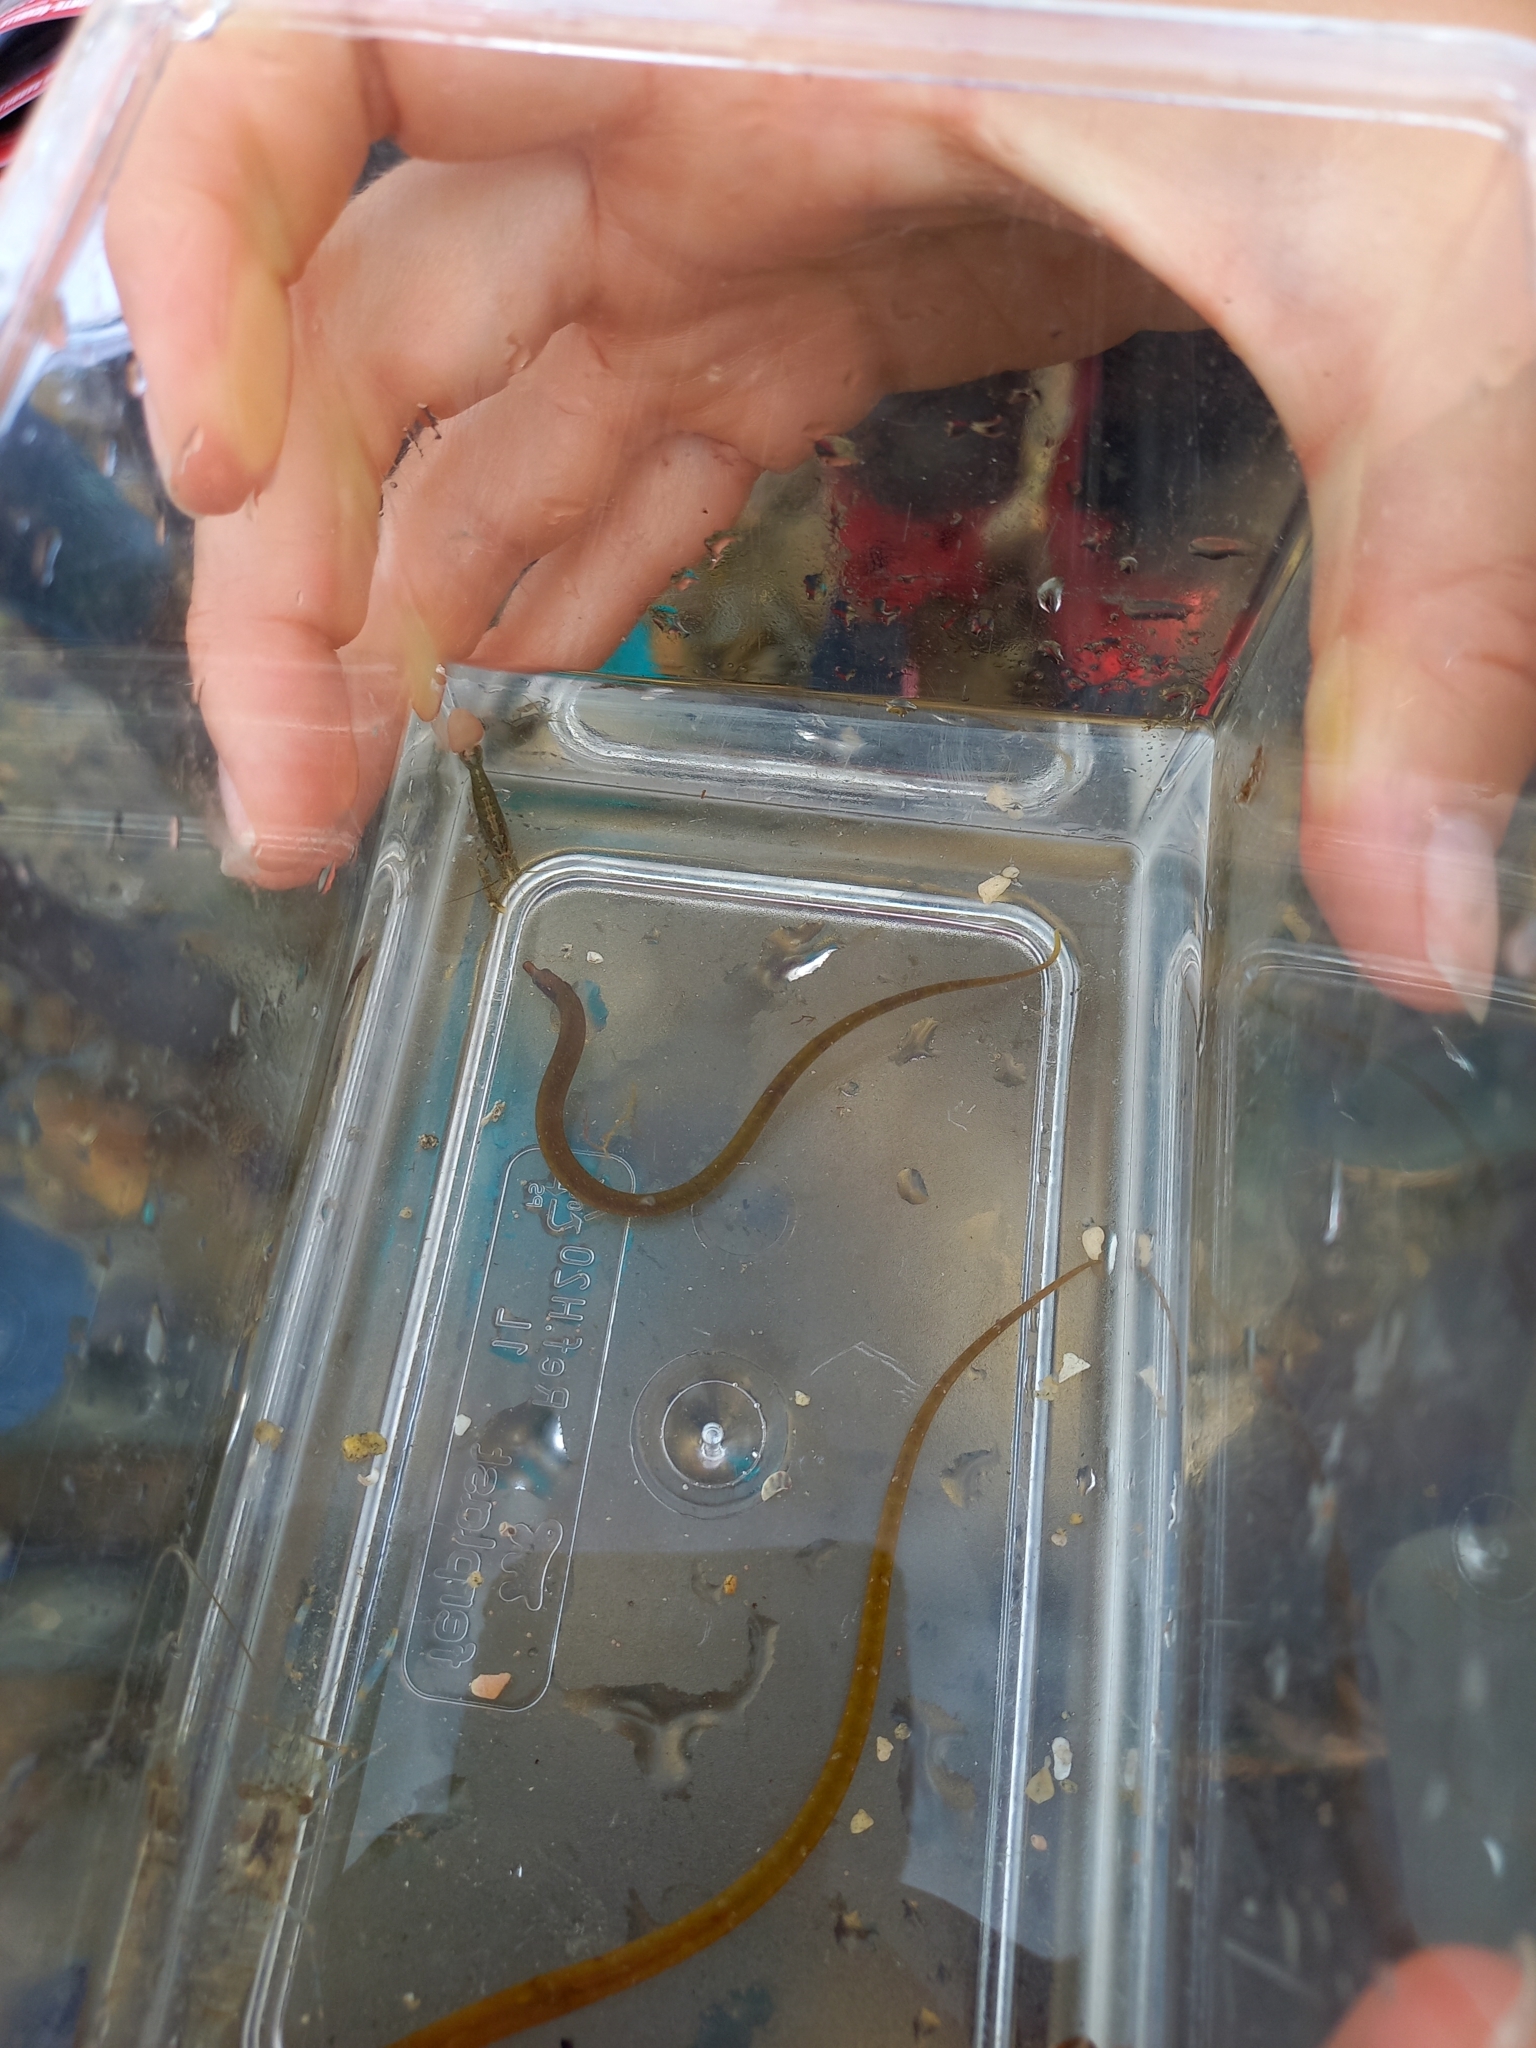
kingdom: Animalia
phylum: Chordata
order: Syngnathiformes
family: Syngnathidae
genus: Nerophis
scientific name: Nerophis lumbriciformis
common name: Worm pipefish
